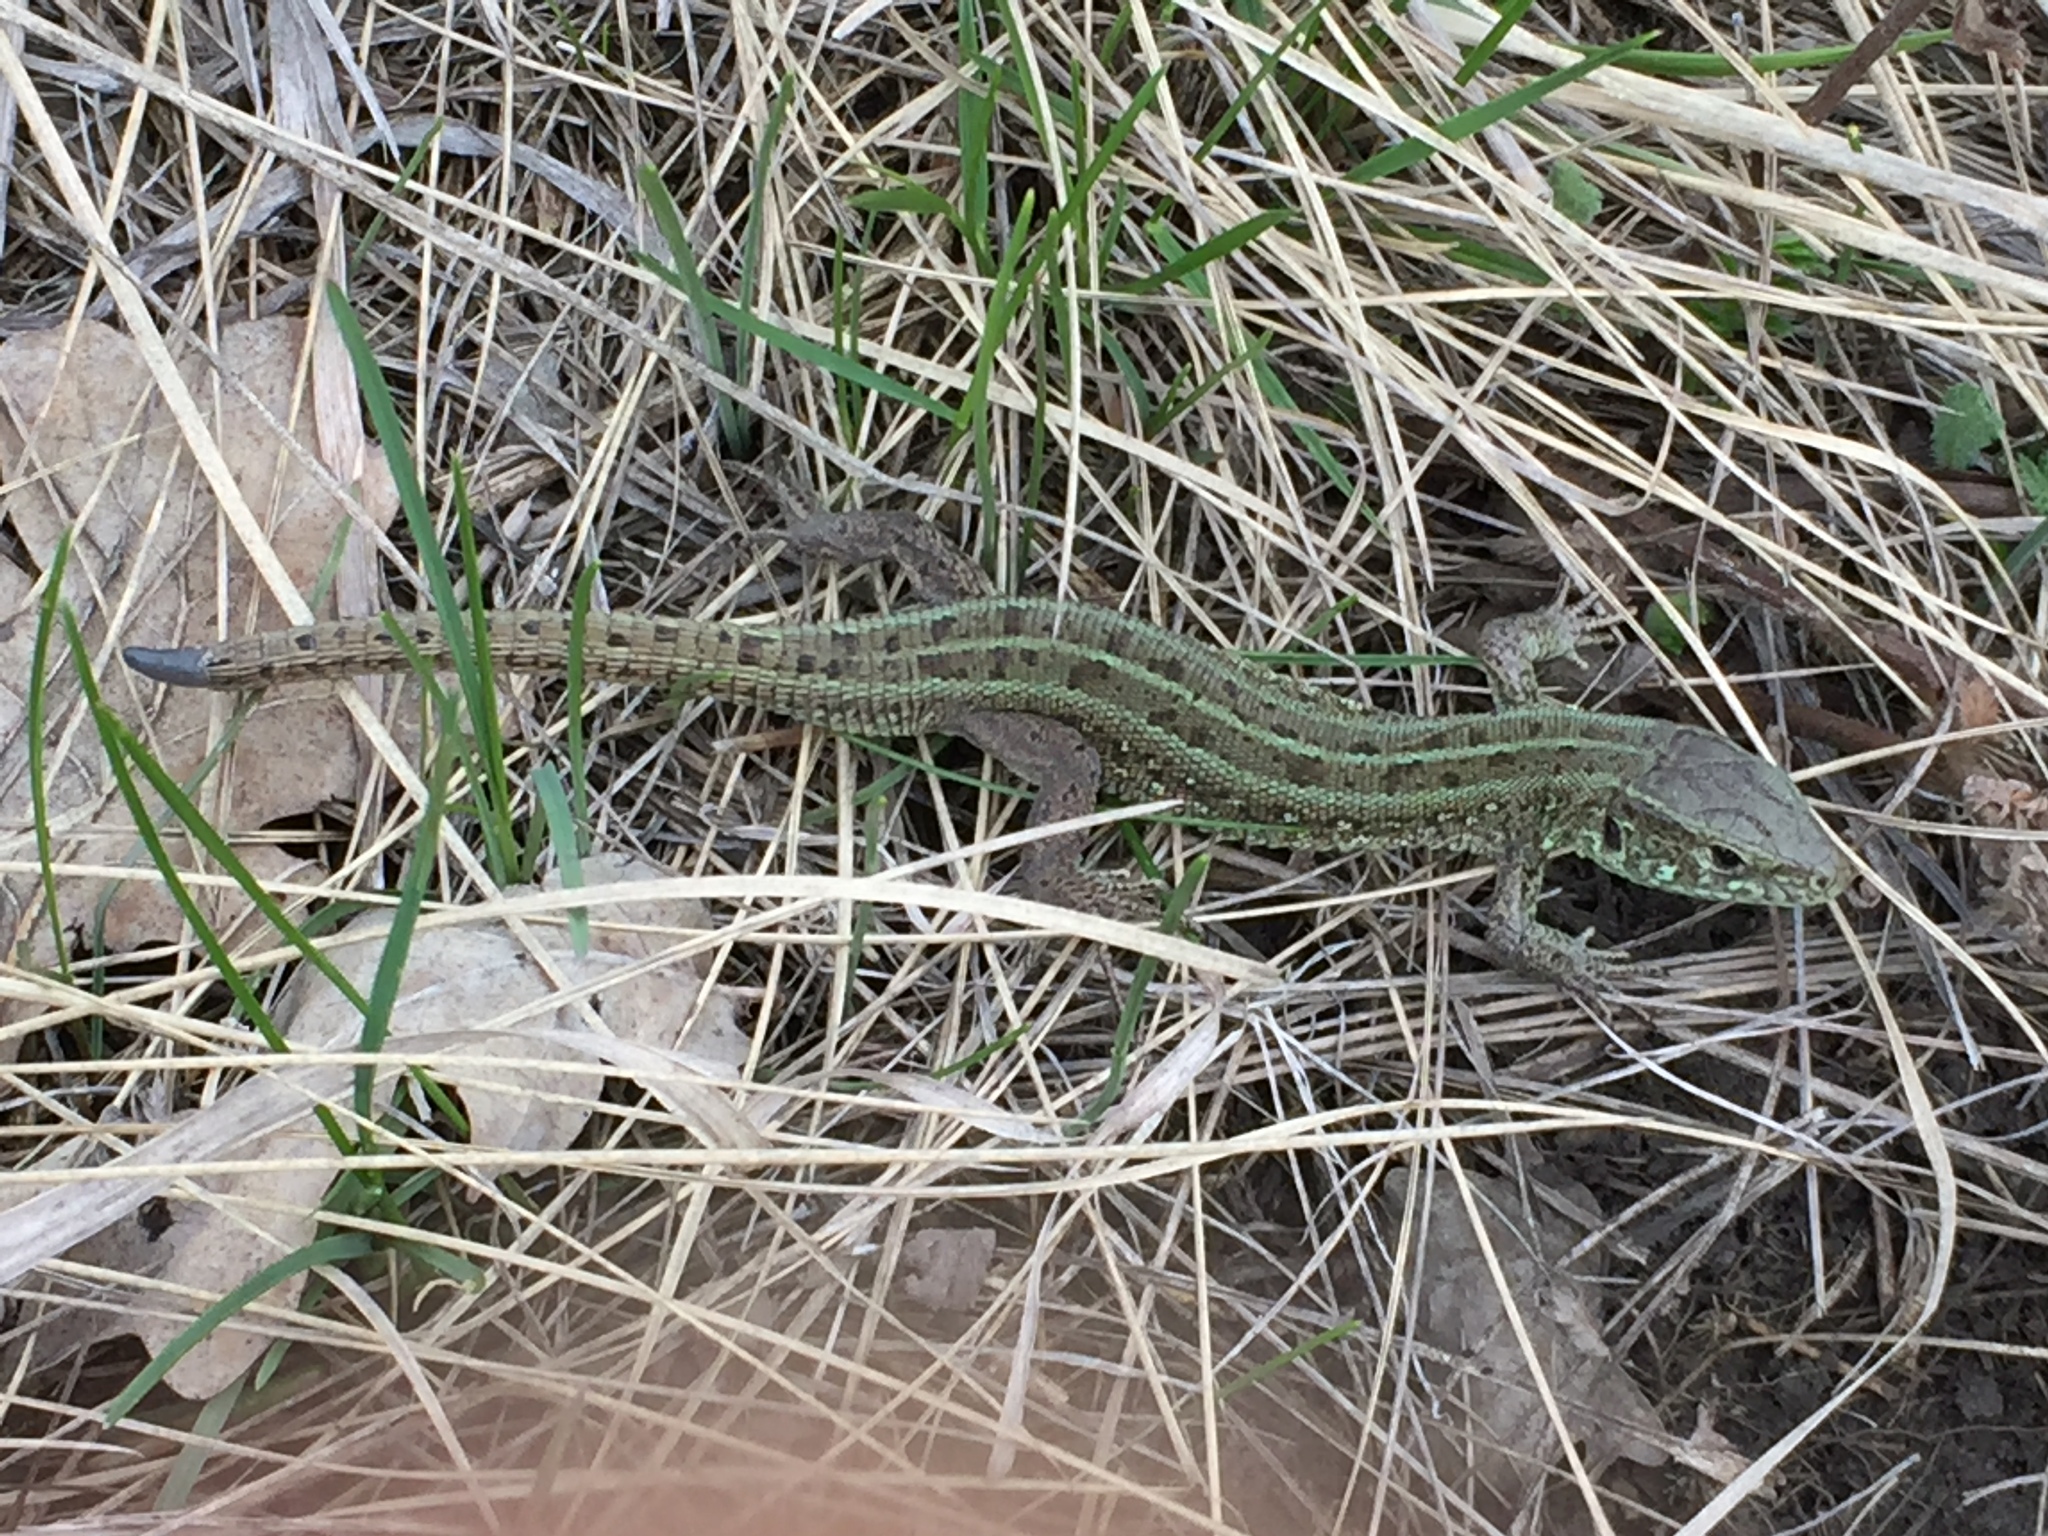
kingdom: Animalia
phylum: Chordata
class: Squamata
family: Lacertidae
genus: Lacerta
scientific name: Lacerta agilis
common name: Sand lizard
